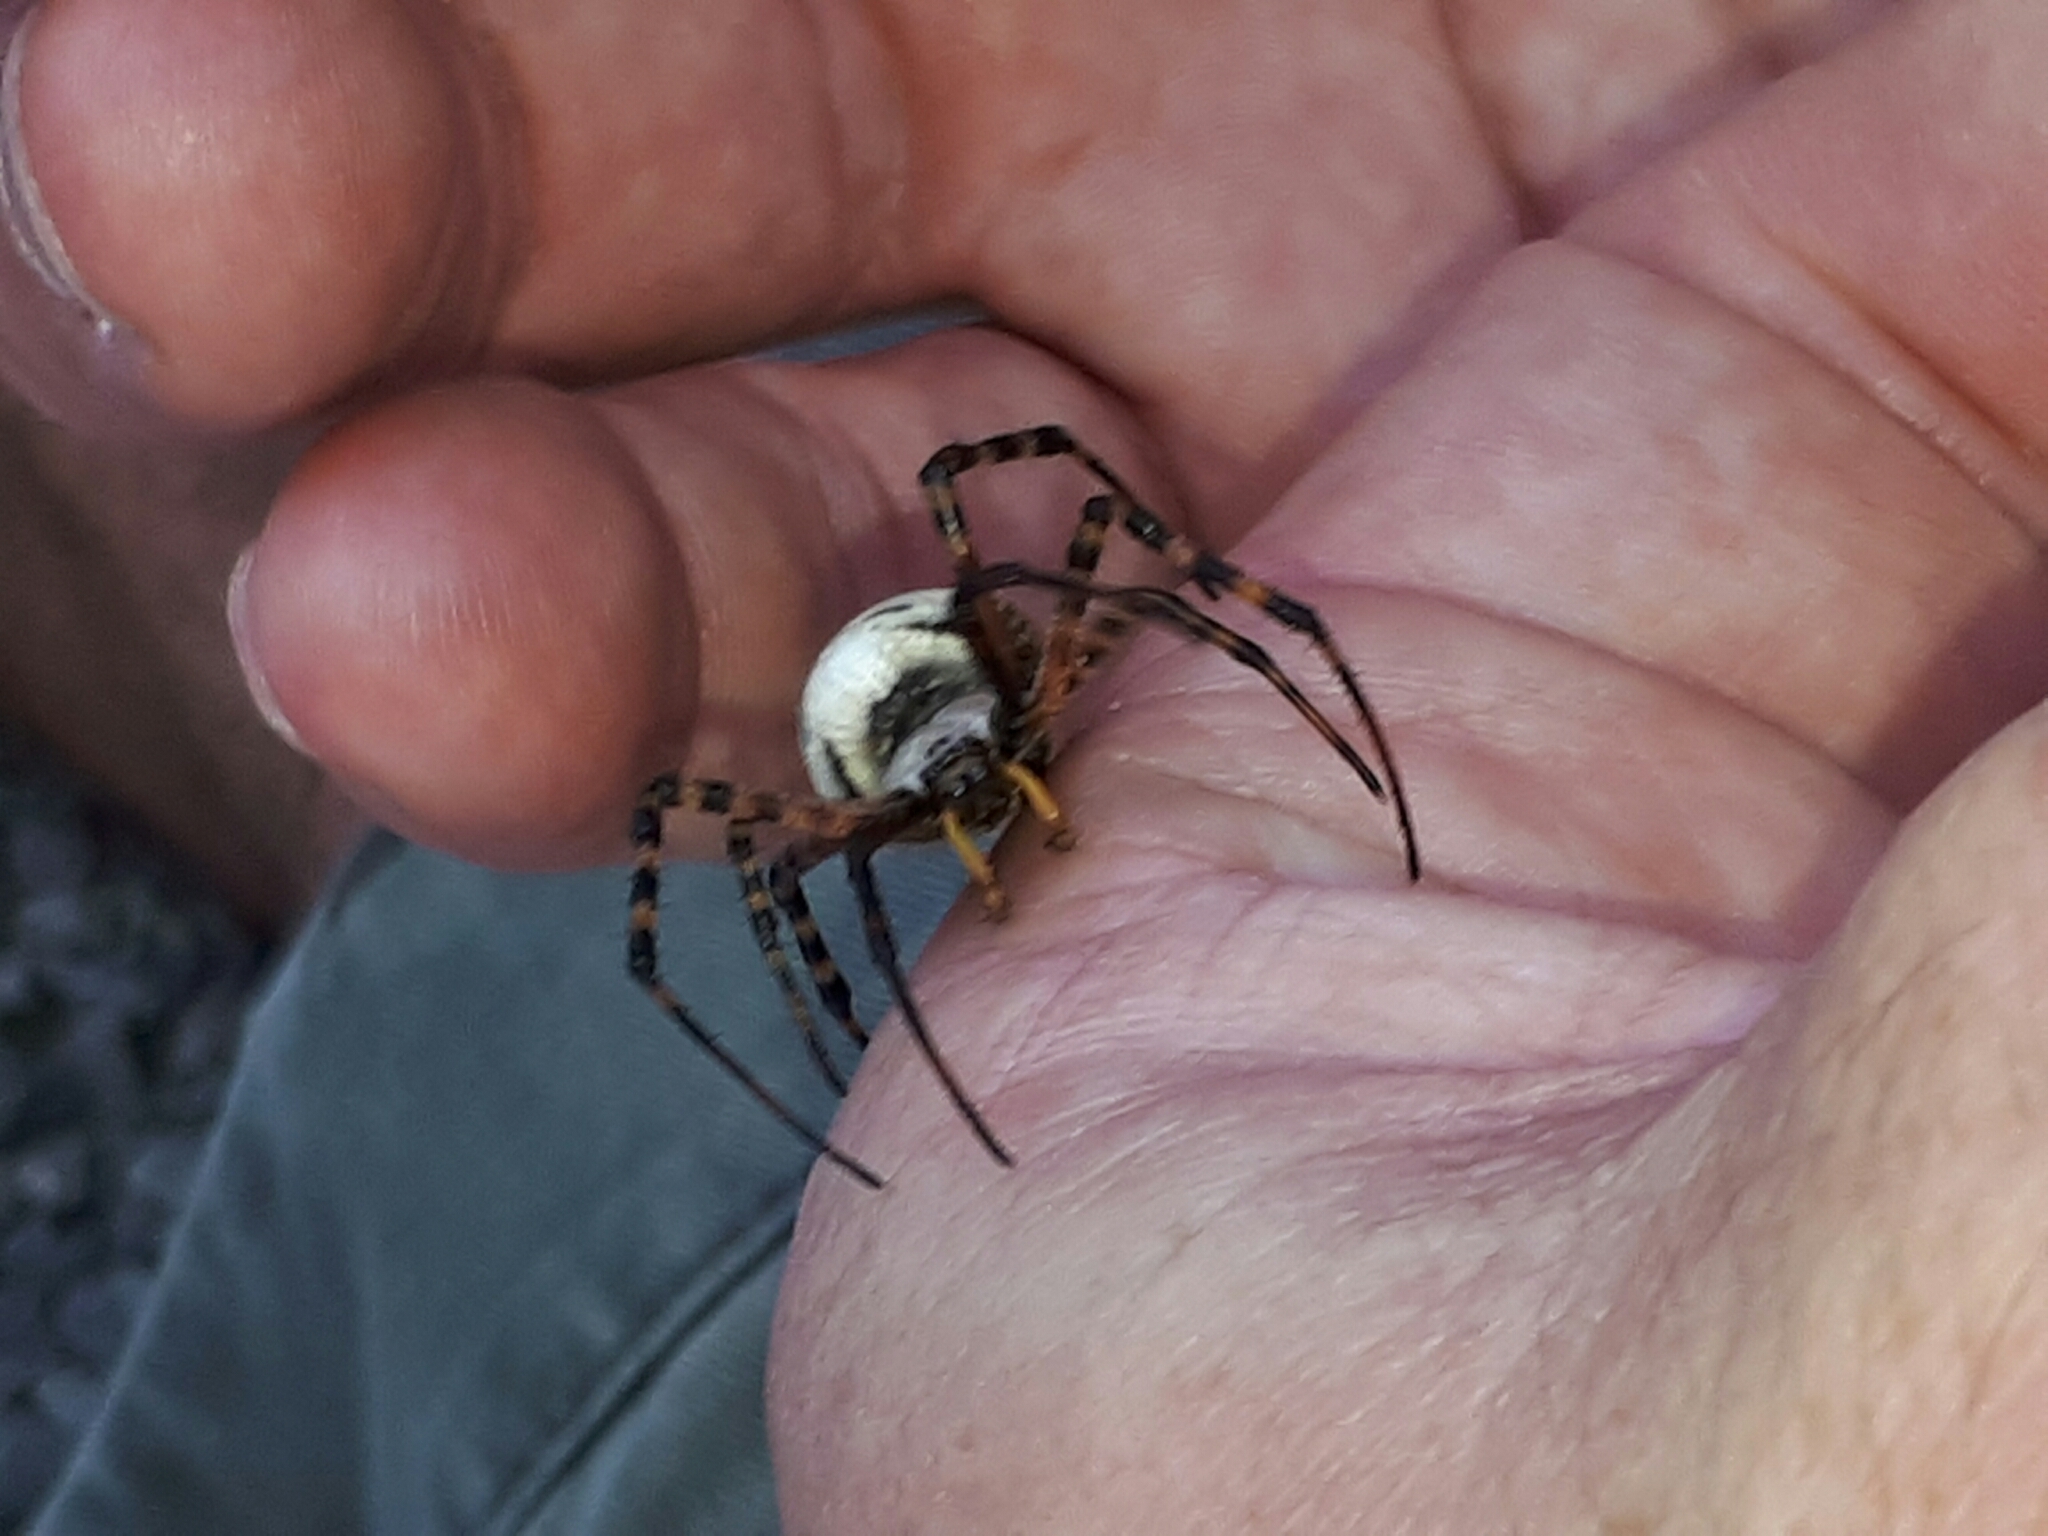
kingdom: Animalia
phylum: Arthropoda
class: Arachnida
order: Araneae
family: Araneidae
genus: Argiope
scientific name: Argiope trifasciata
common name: Banded garden spider
